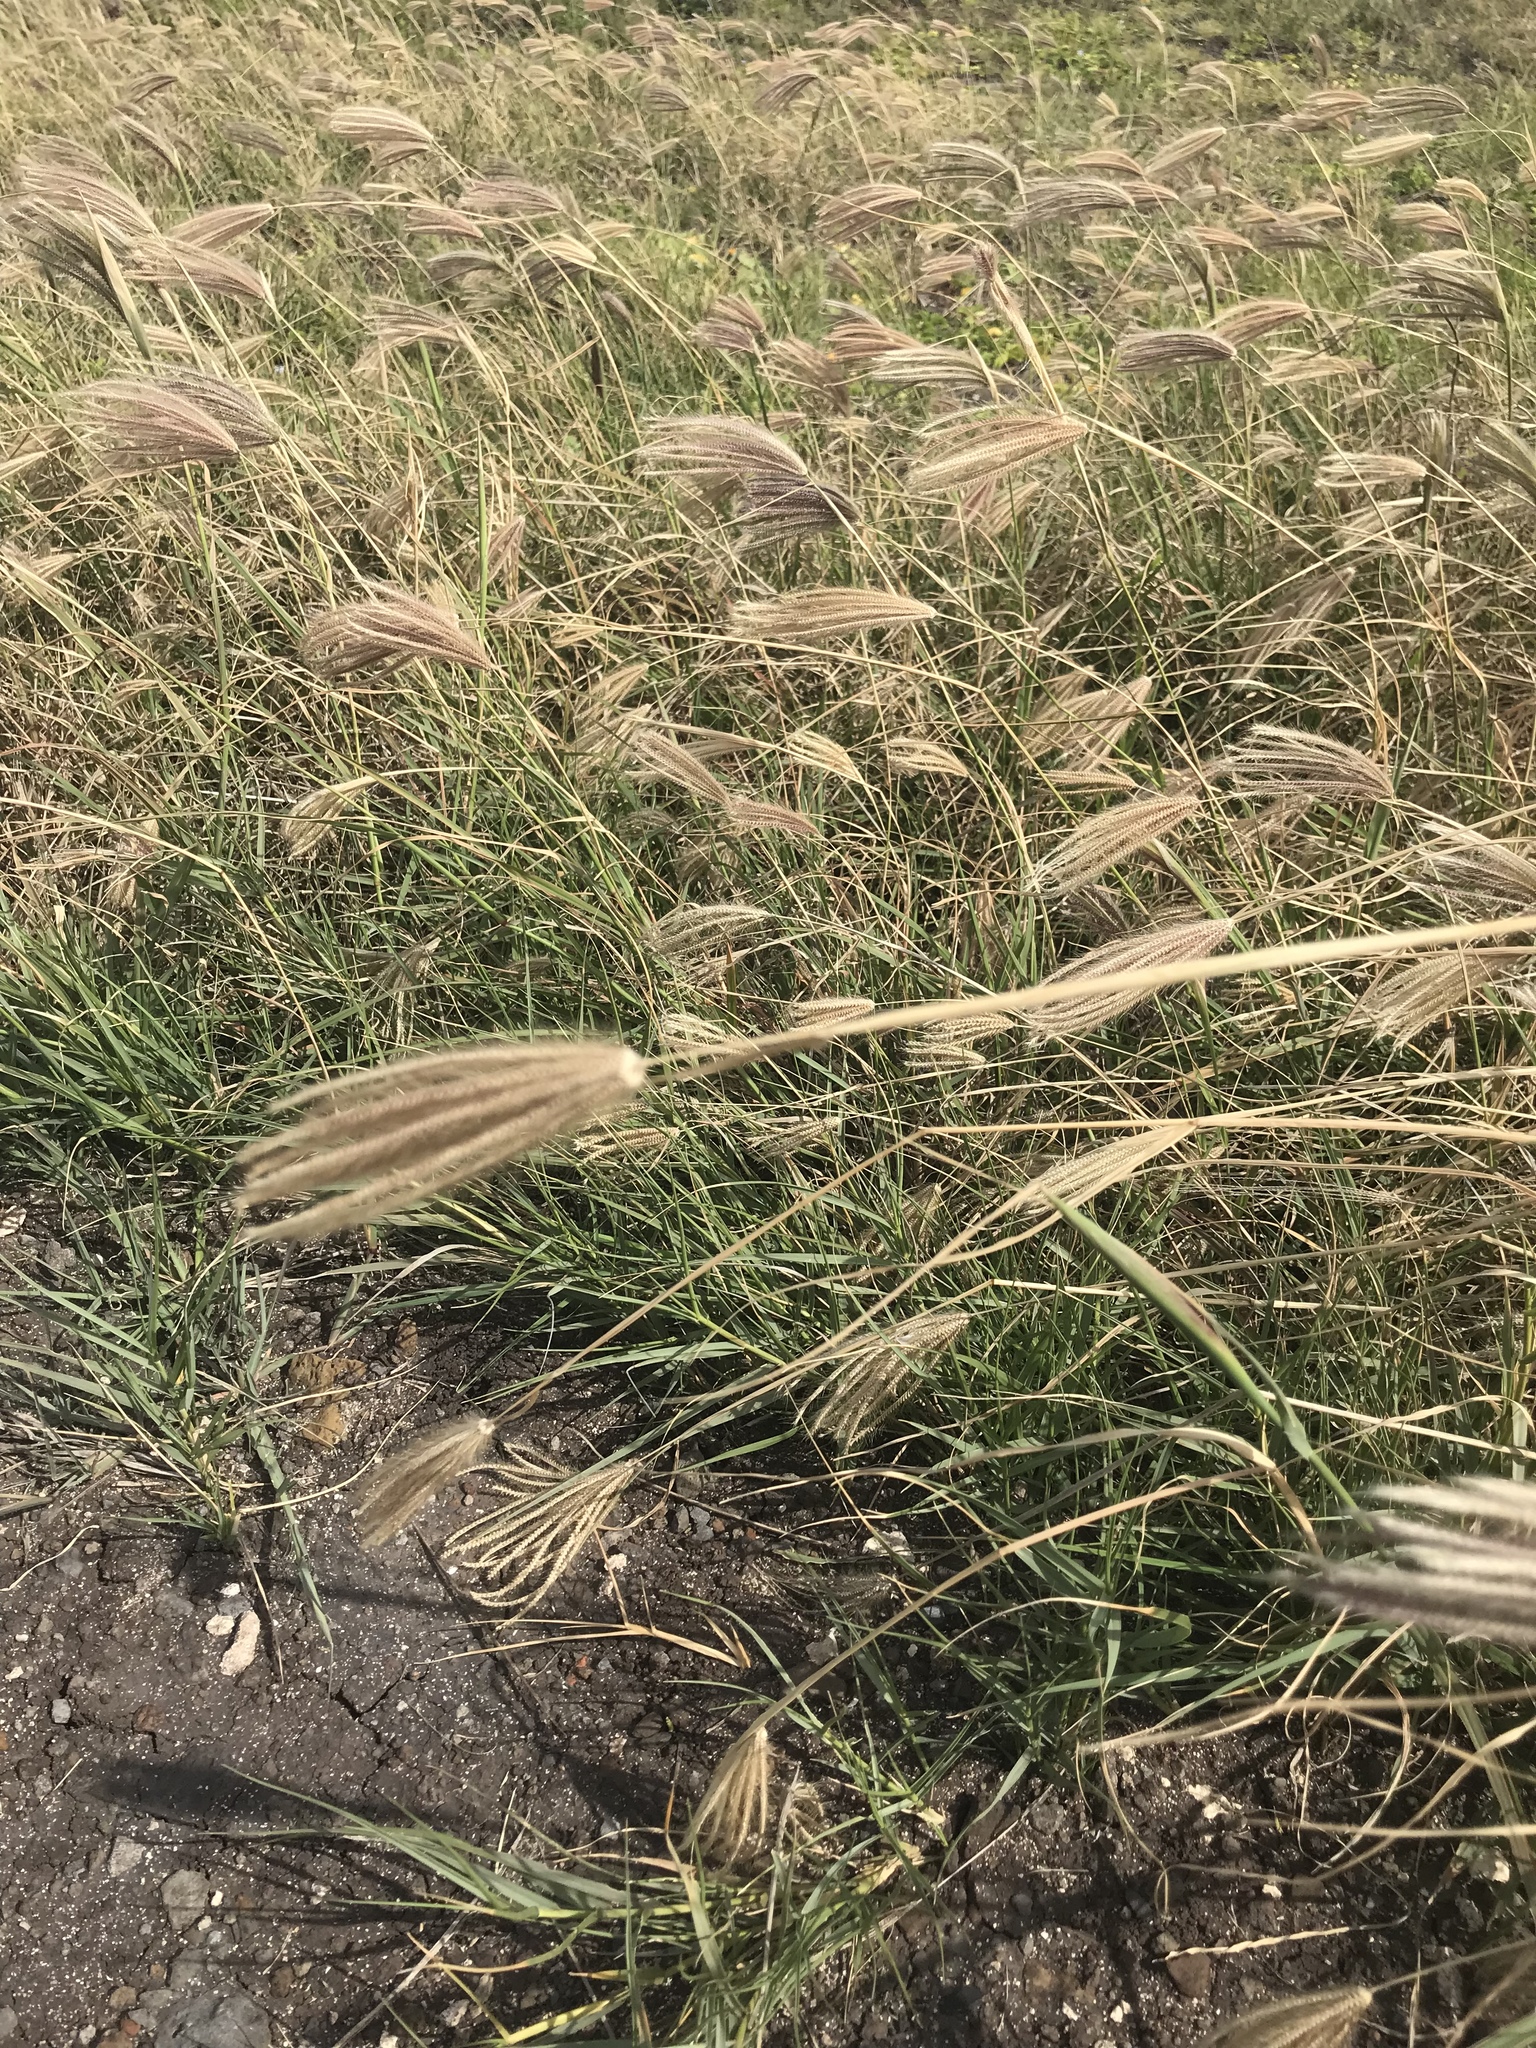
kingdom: Plantae
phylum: Tracheophyta
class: Liliopsida
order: Poales
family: Poaceae
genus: Chloris
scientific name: Chloris barbata
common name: Swollen fingergrass
